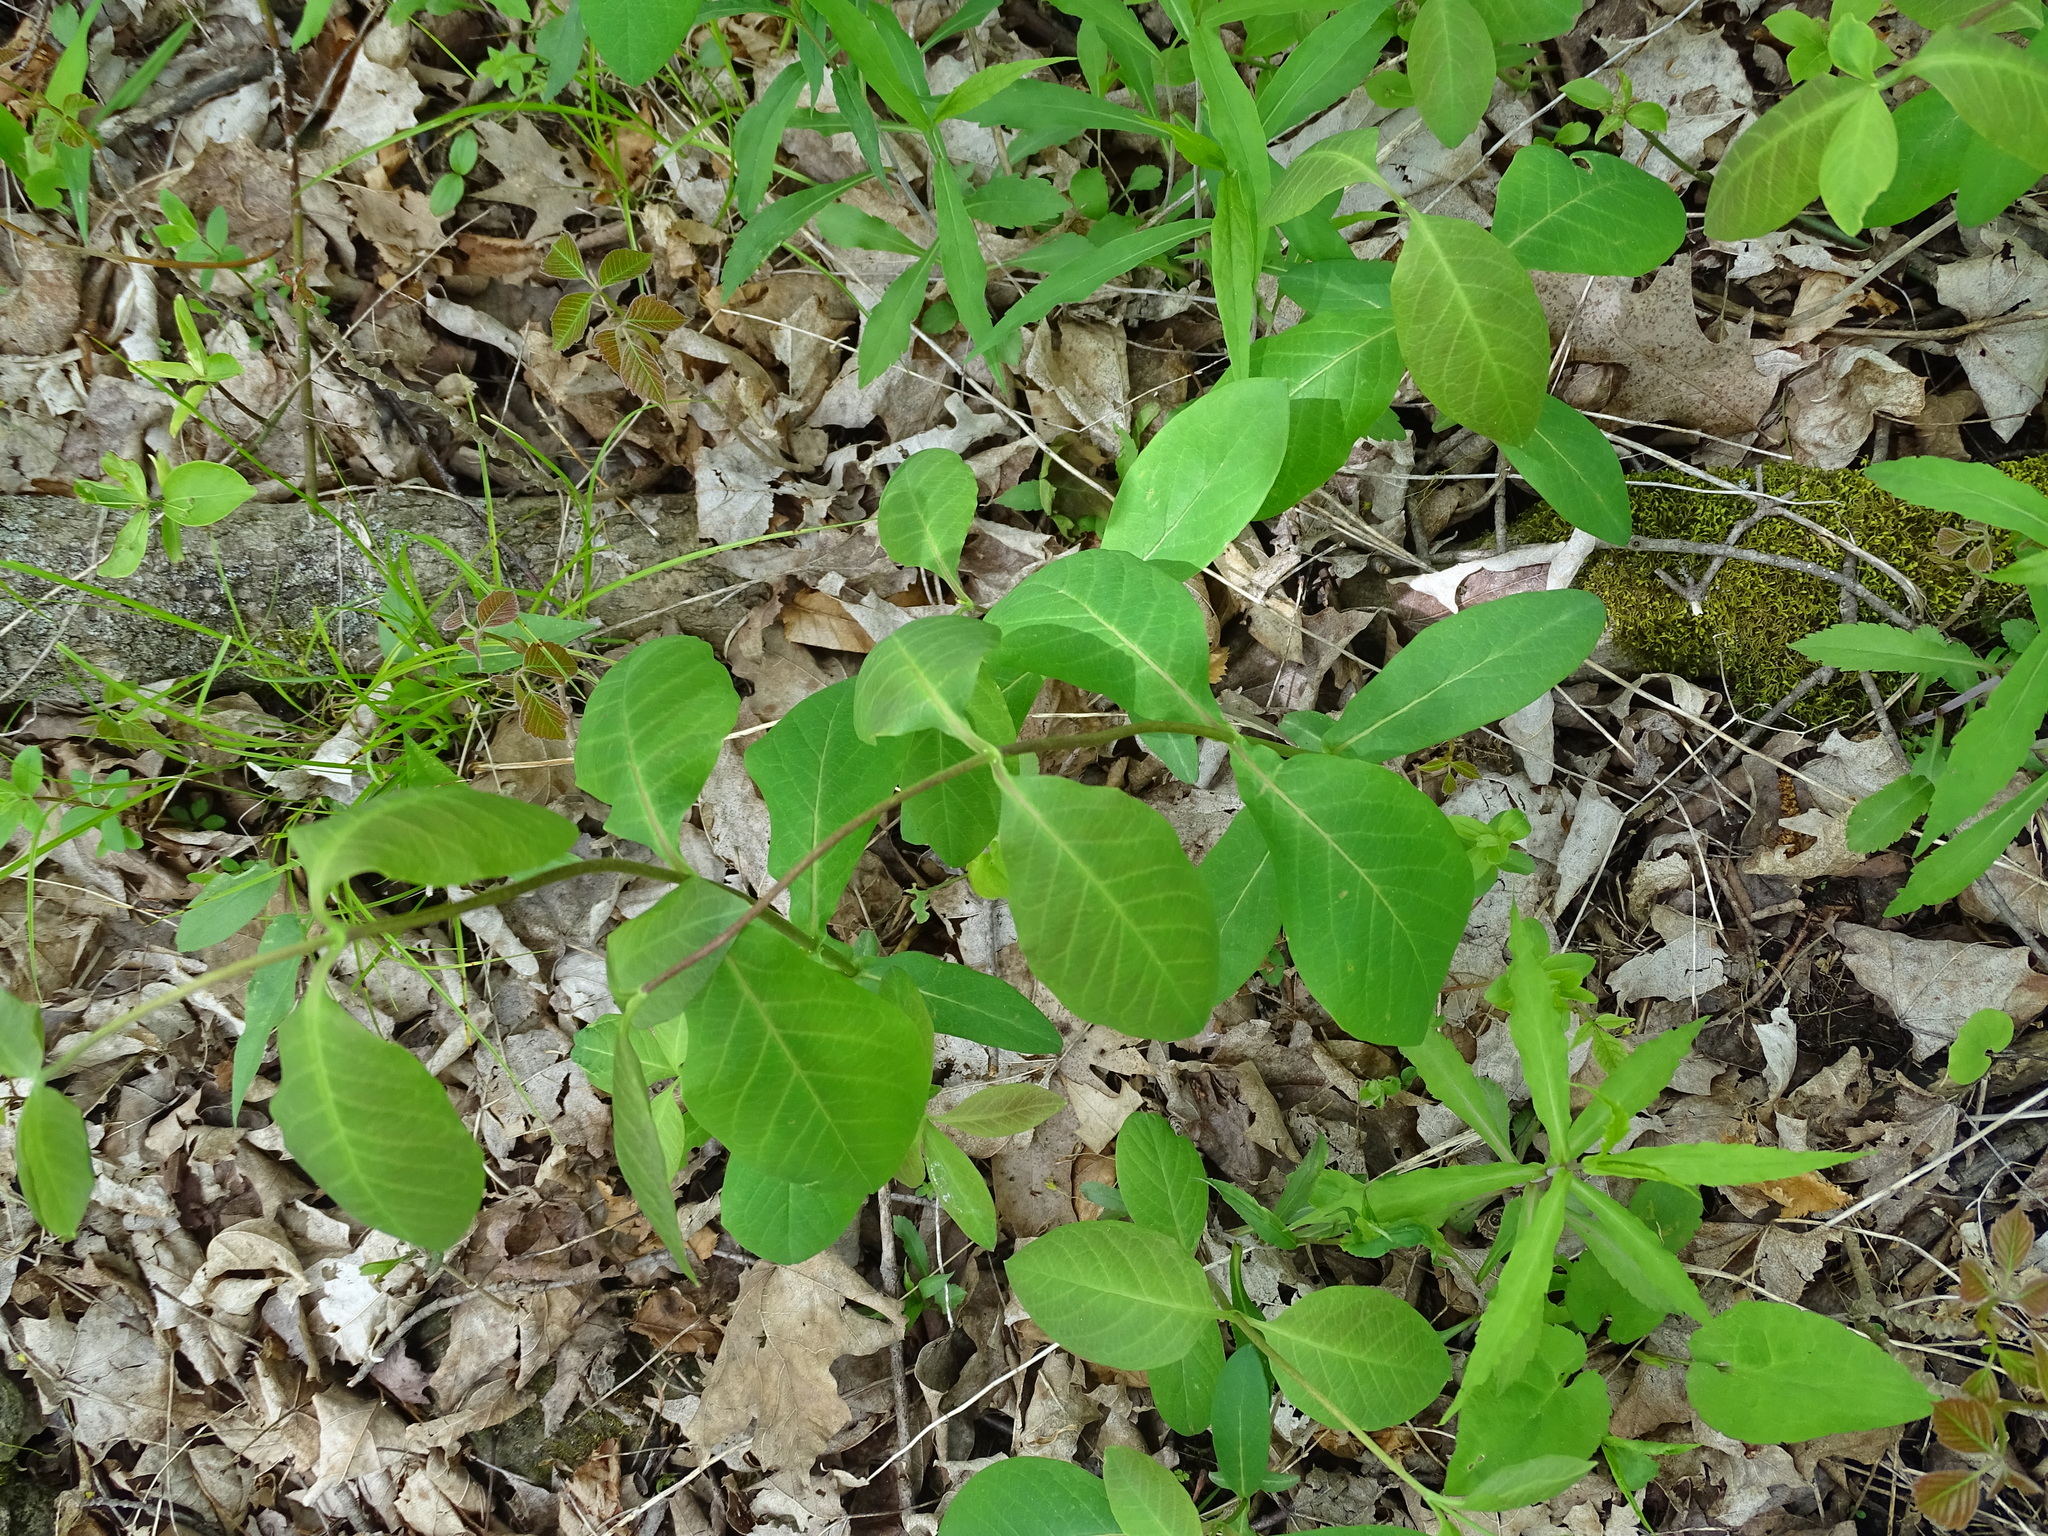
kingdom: Plantae
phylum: Tracheophyta
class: Magnoliopsida
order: Dipsacales
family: Caprifoliaceae
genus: Lonicera
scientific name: Lonicera dioica
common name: Limber honeysuckle
